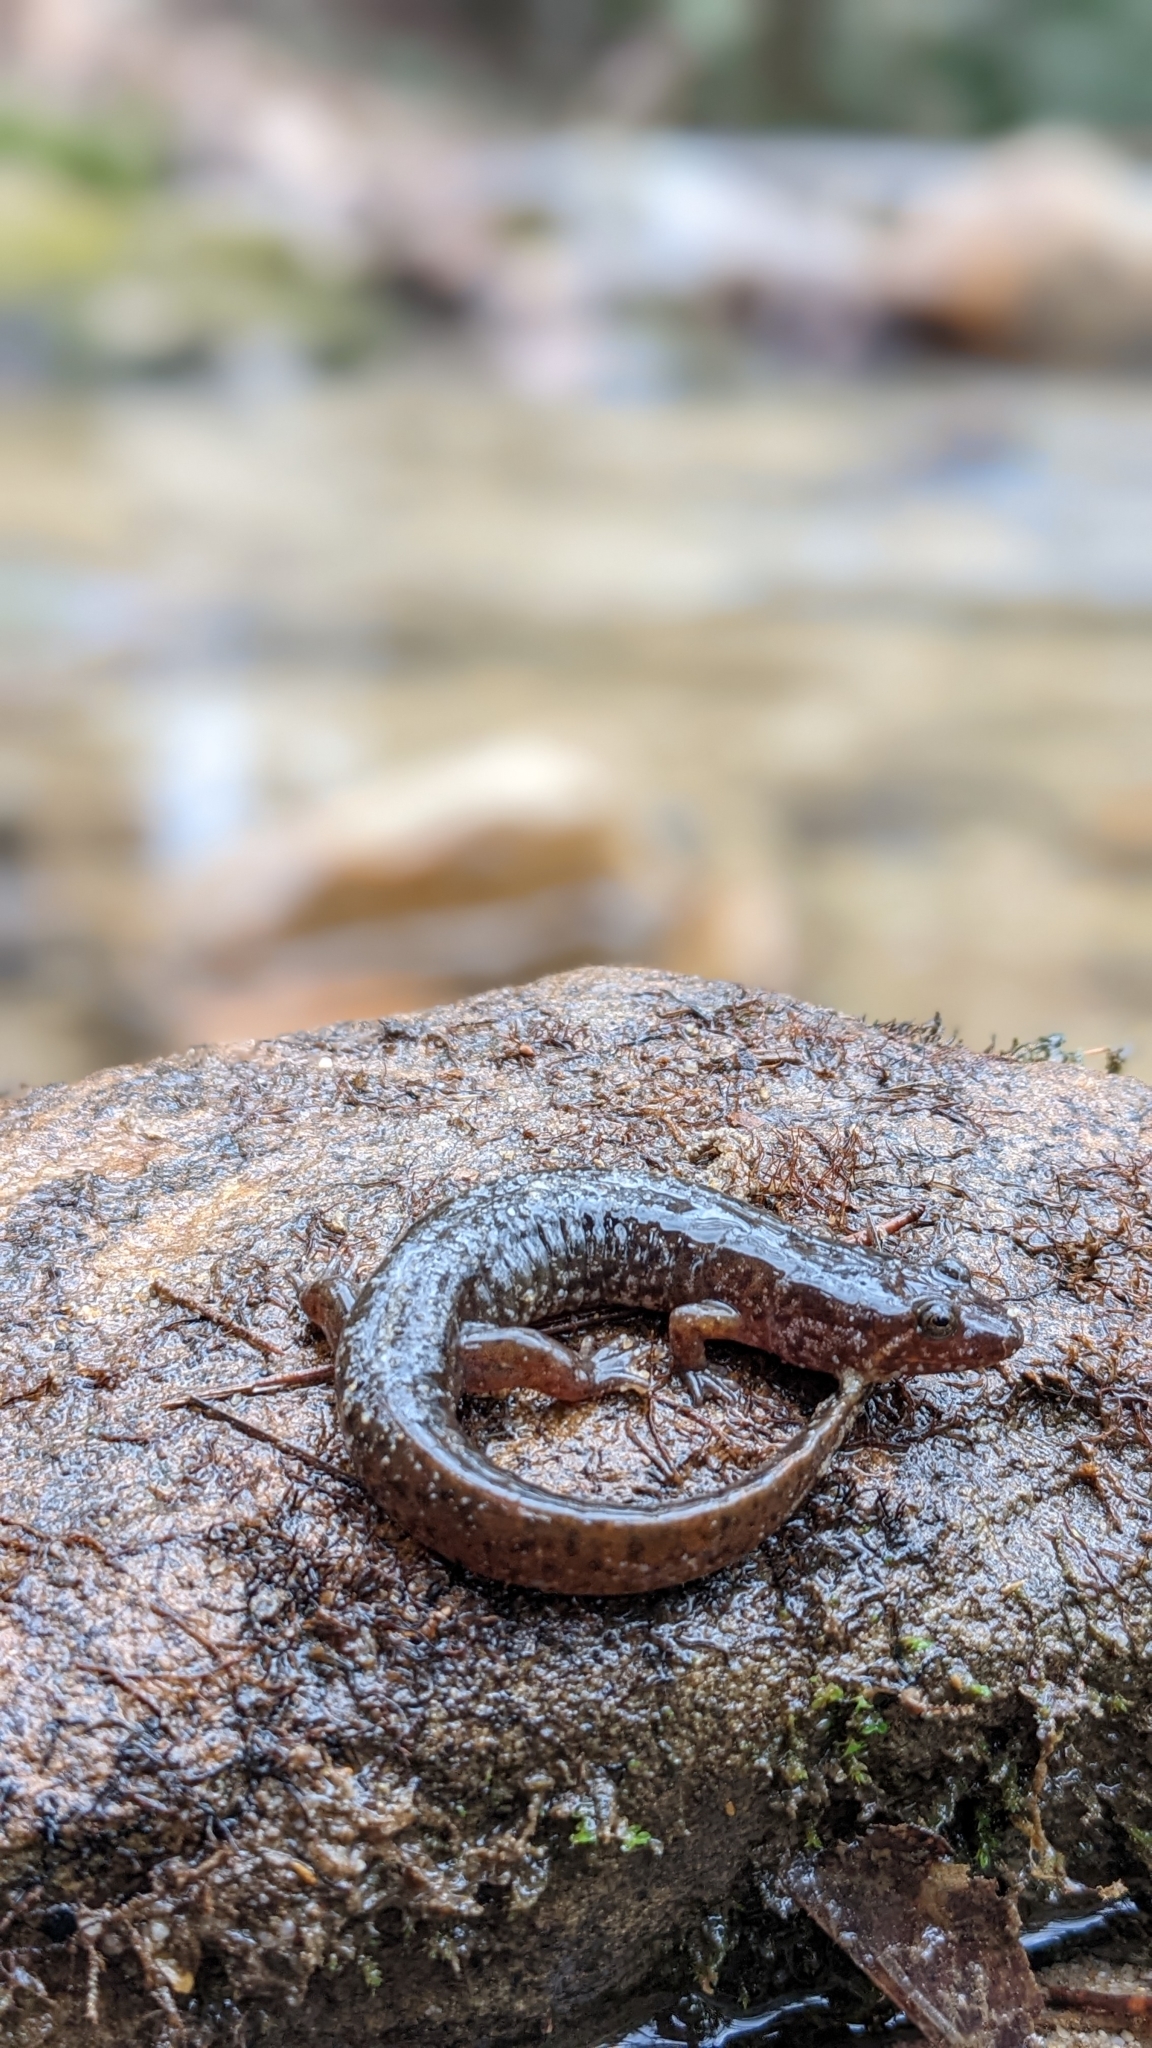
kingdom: Animalia
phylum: Chordata
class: Amphibia
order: Caudata
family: Plethodontidae
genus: Desmognathus
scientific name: Desmognathus monticola
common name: Seal salamander
